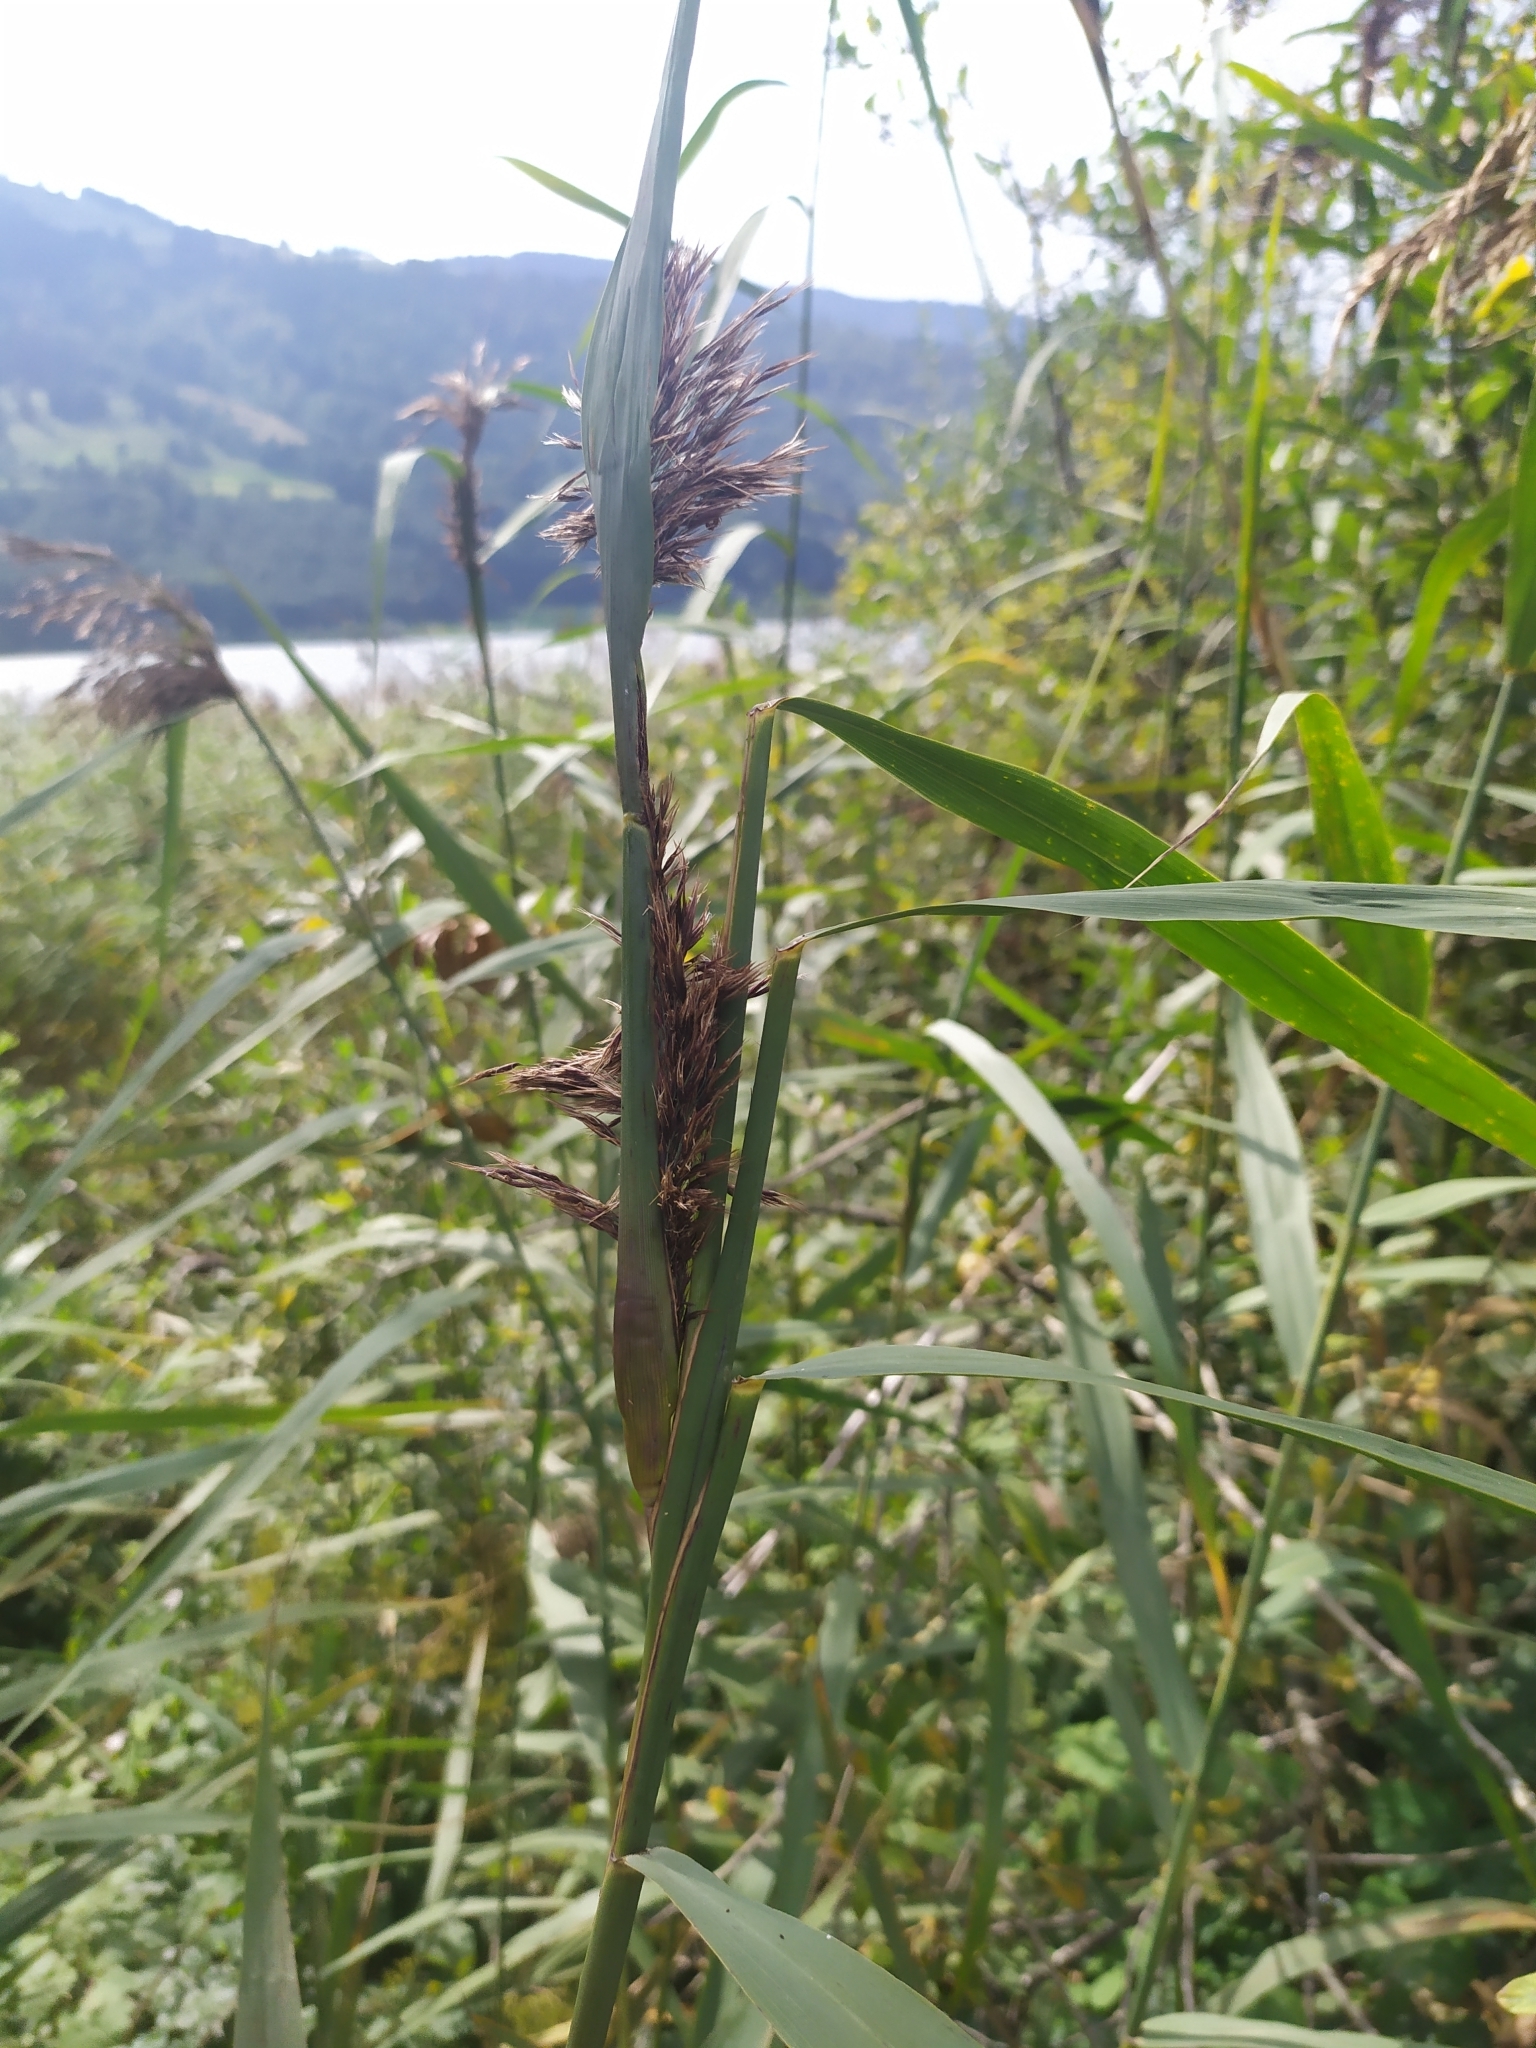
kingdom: Animalia
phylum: Arthropoda
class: Insecta
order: Diptera
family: Chloropidae
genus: Lipara
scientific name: Lipara lucens
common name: Frit fly
